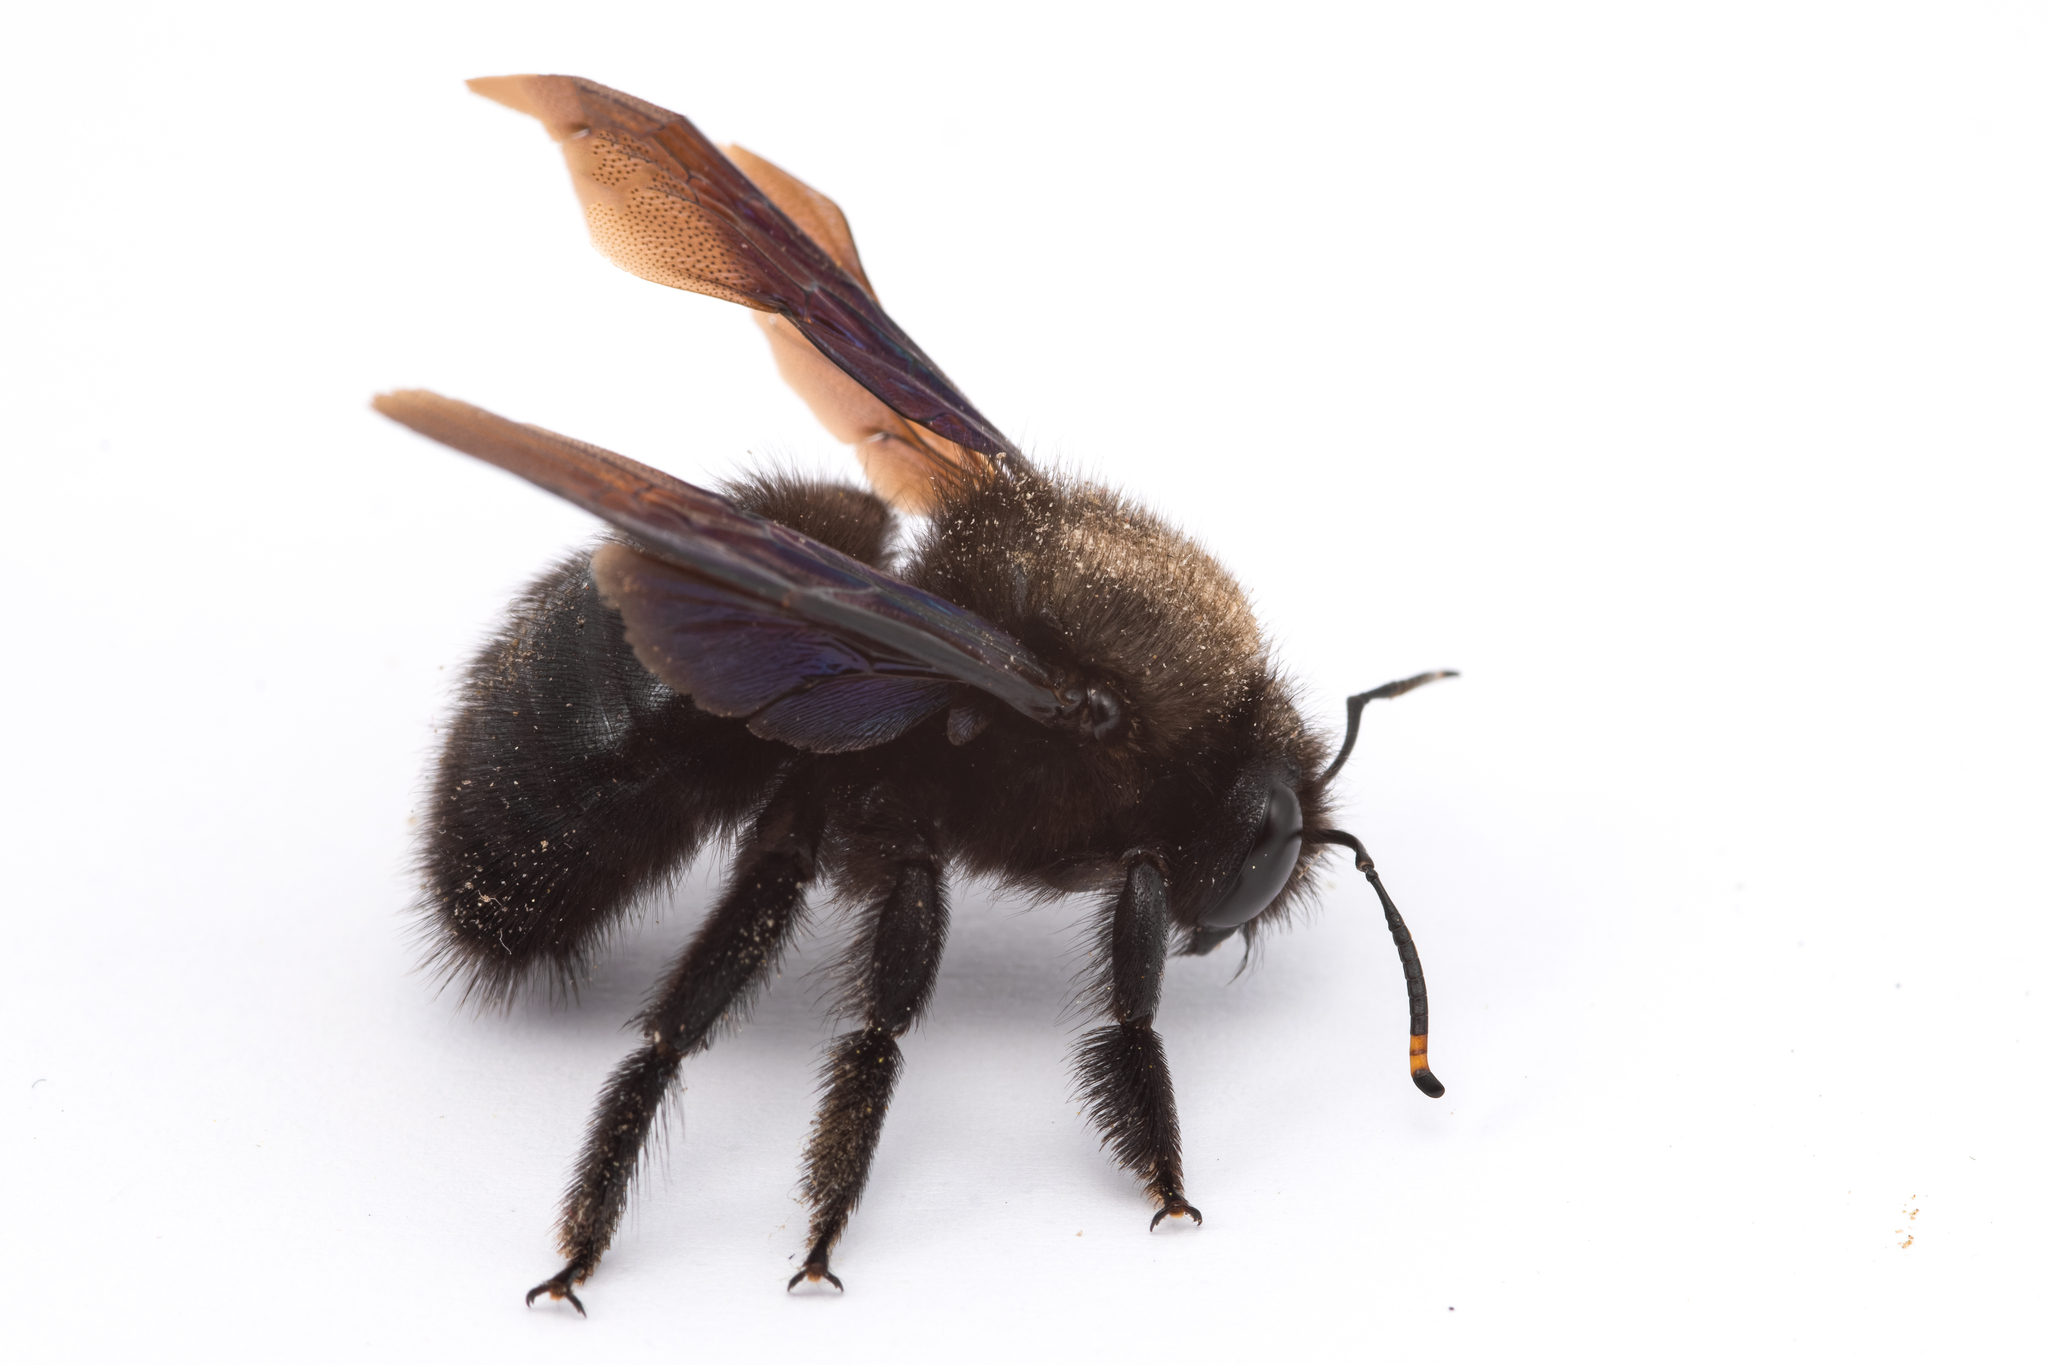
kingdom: Animalia
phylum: Arthropoda
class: Insecta
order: Hymenoptera
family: Apidae
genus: Xylocopa
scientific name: Xylocopa violacea
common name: Violet carpenter bee
